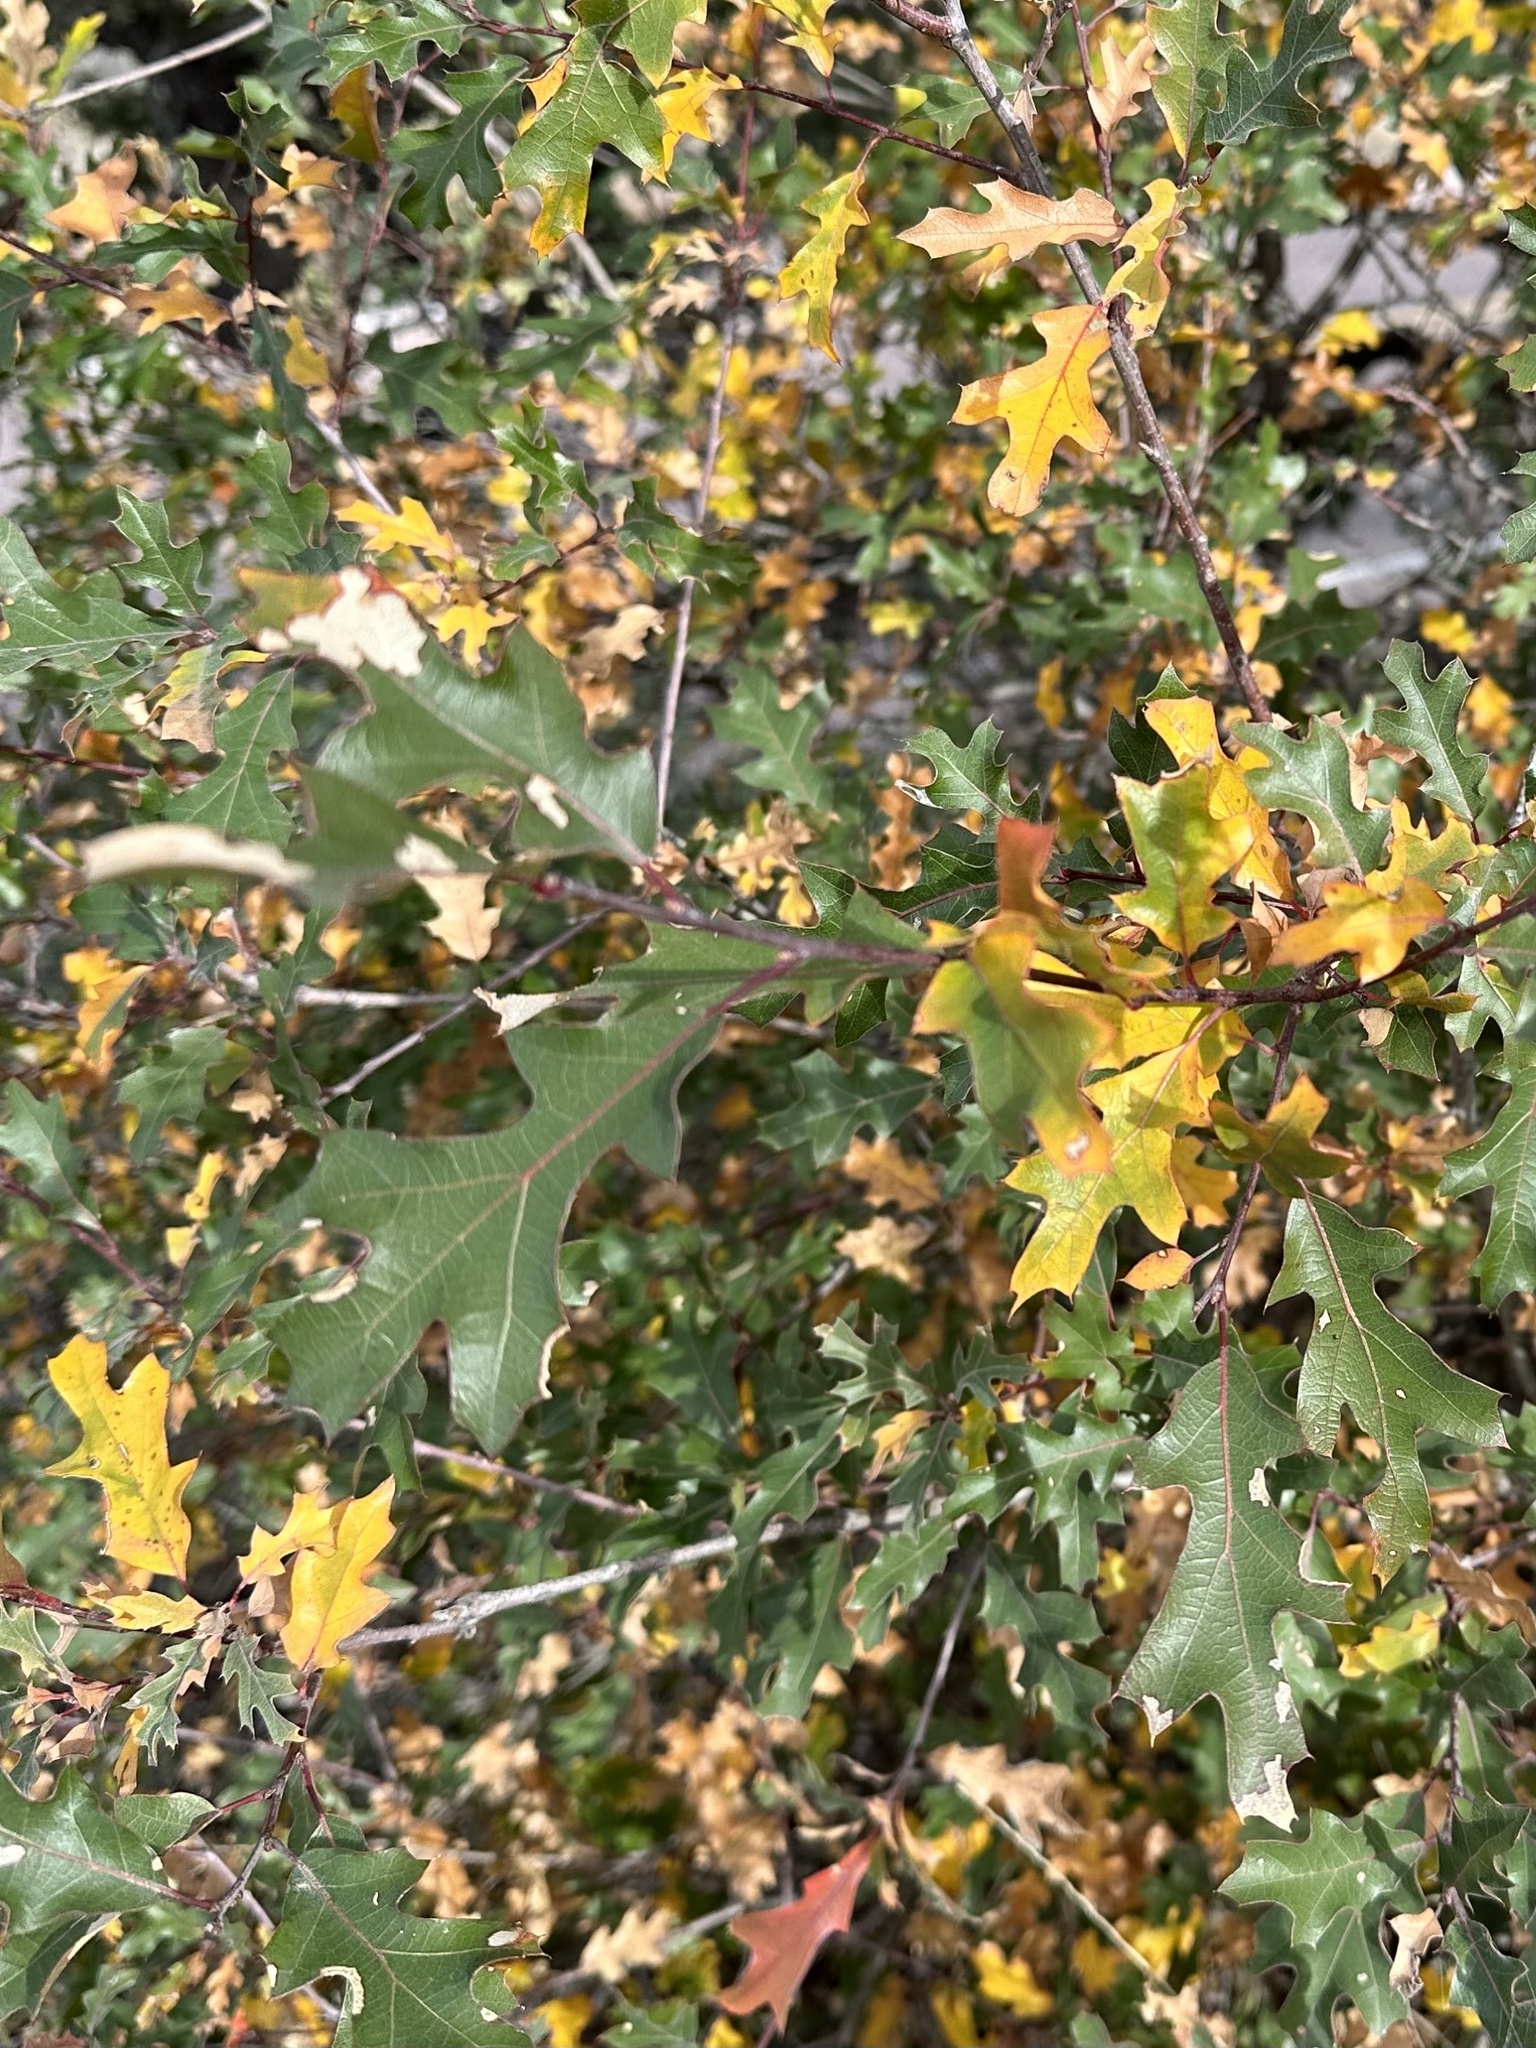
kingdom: Plantae
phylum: Tracheophyta
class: Magnoliopsida
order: Fagales
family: Fagaceae
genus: Quercus
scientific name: Quercus gravesii
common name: Chisos red oak
